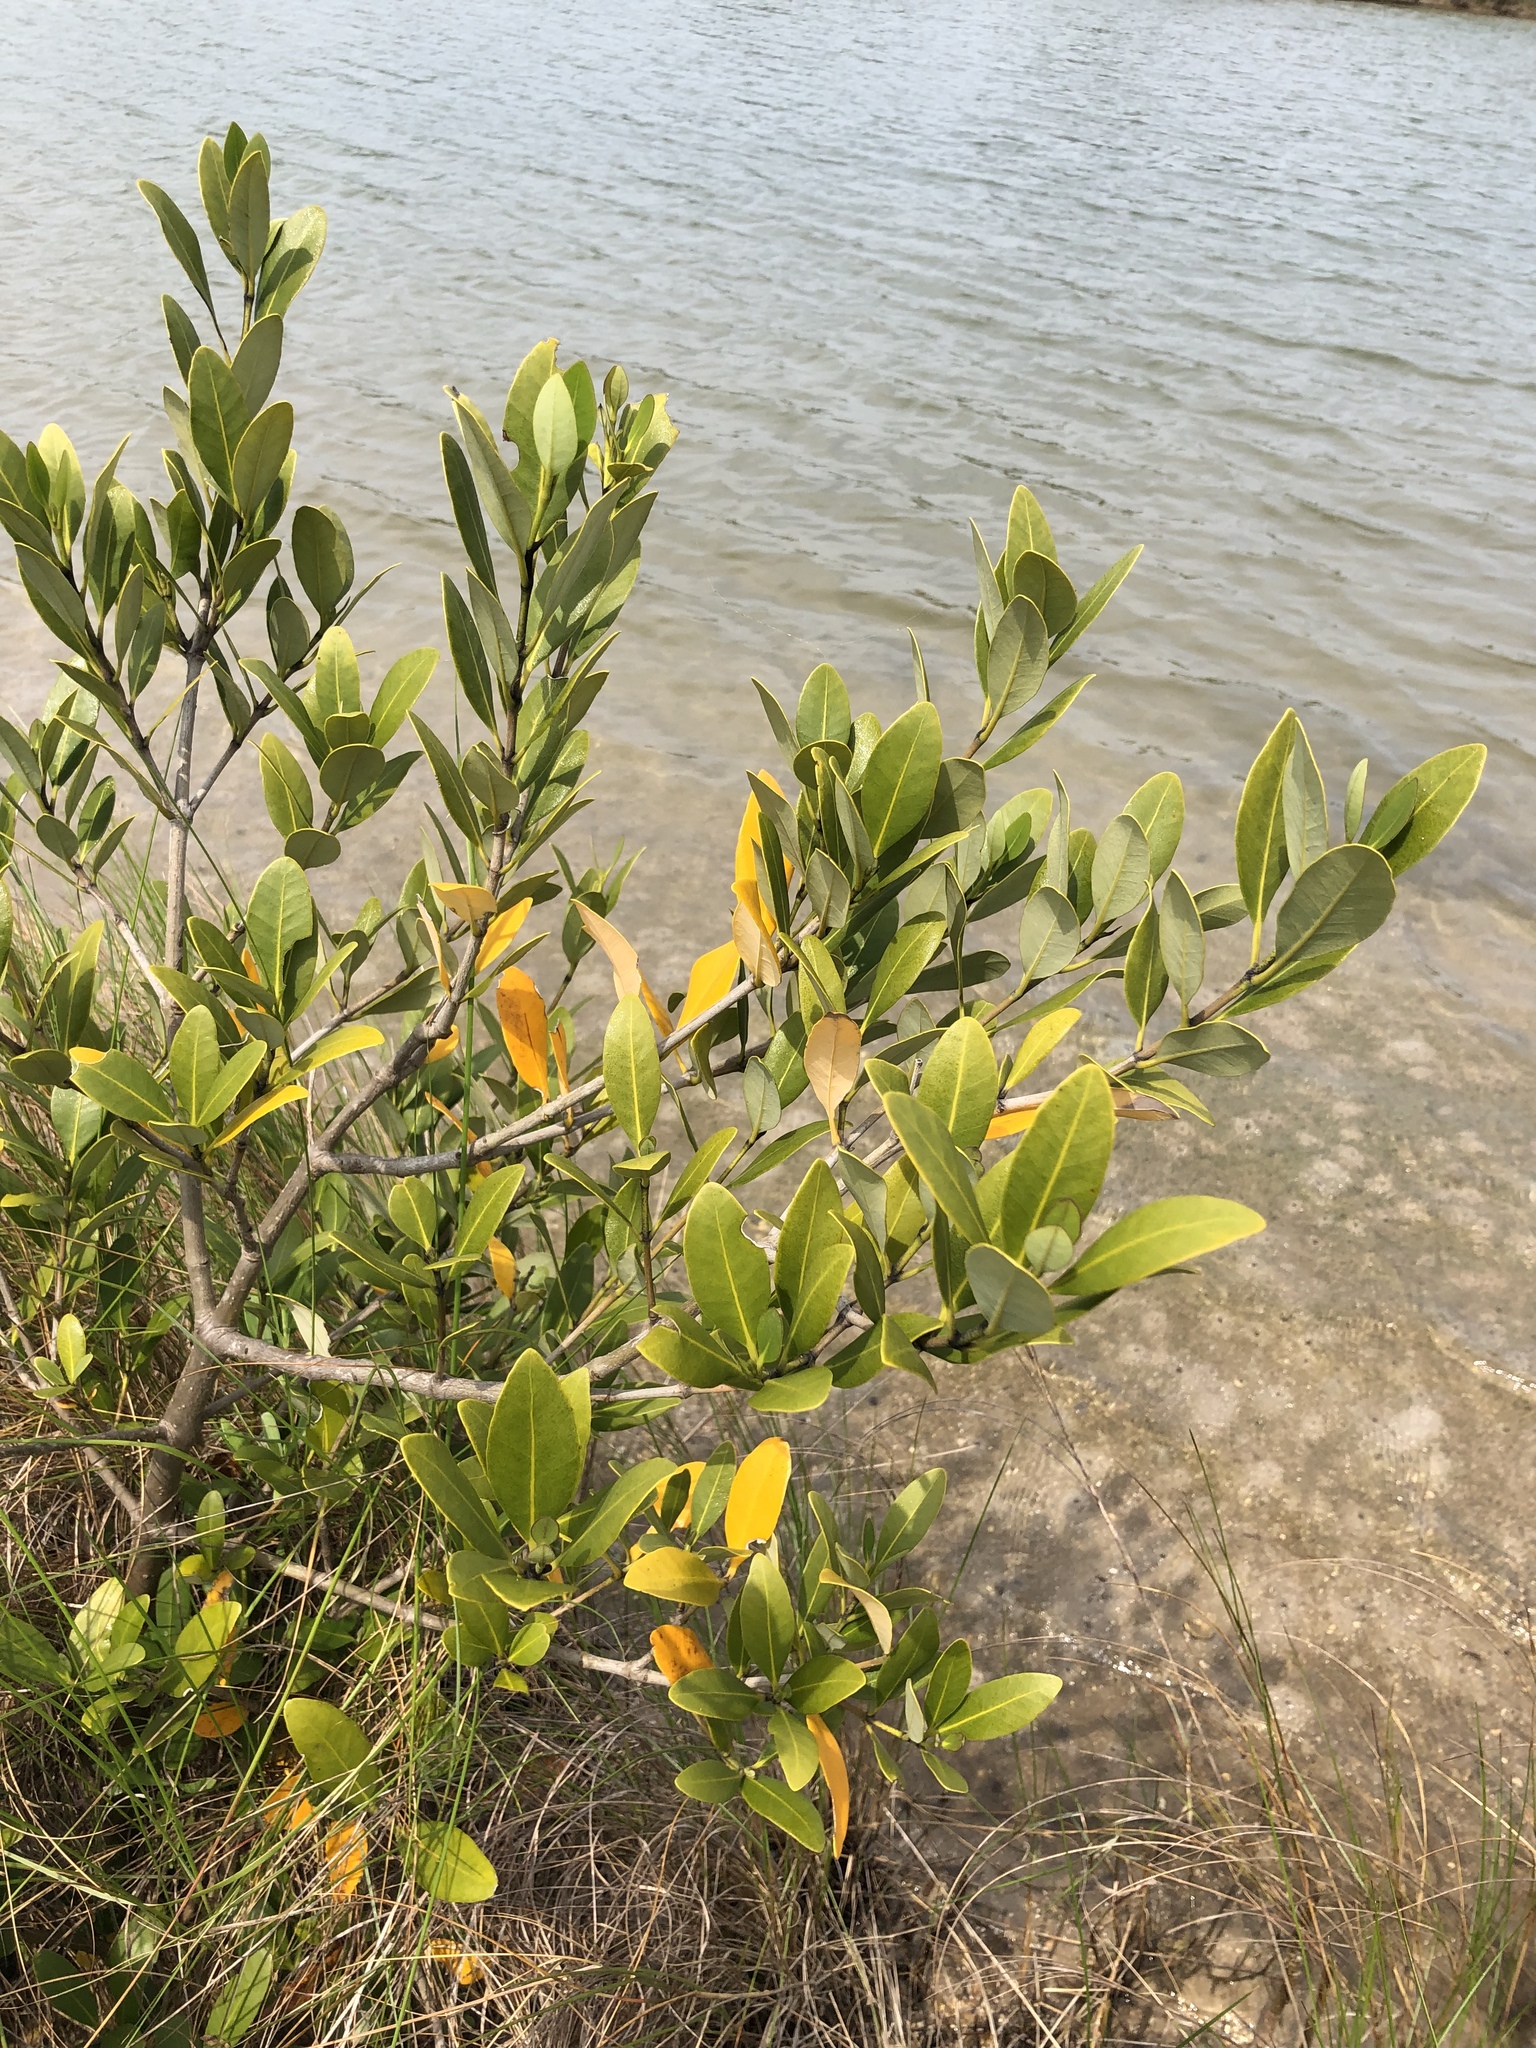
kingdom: Plantae
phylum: Tracheophyta
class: Magnoliopsida
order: Lamiales
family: Acanthaceae
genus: Avicennia
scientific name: Avicennia germinans
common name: Black mangrove
